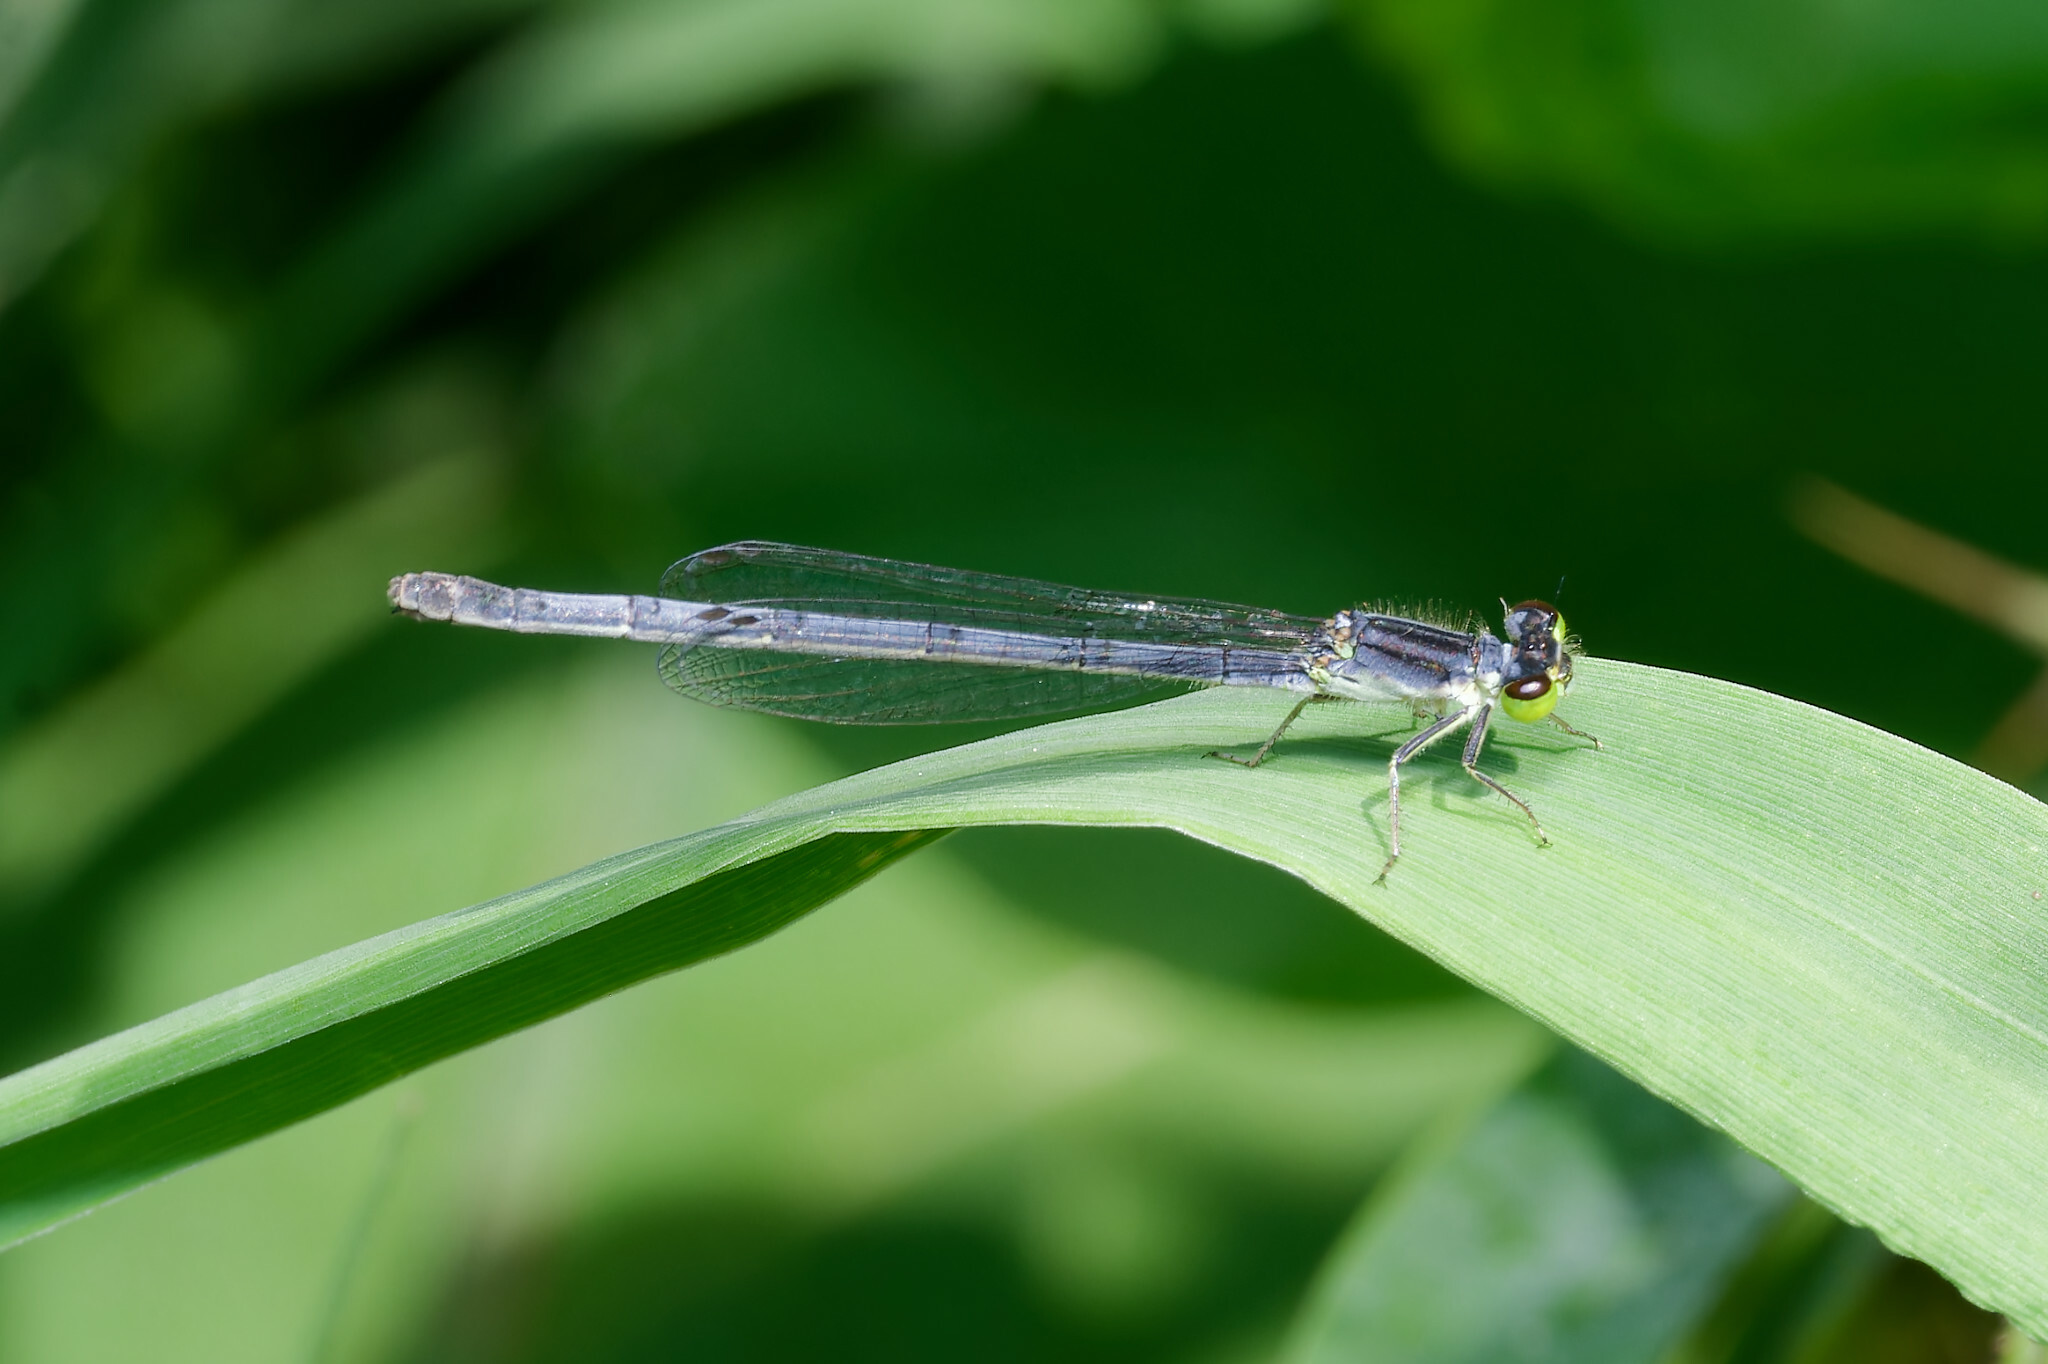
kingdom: Animalia
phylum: Arthropoda
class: Insecta
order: Odonata
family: Coenagrionidae
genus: Ischnura
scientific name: Ischnura verticalis
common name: Eastern forktail
